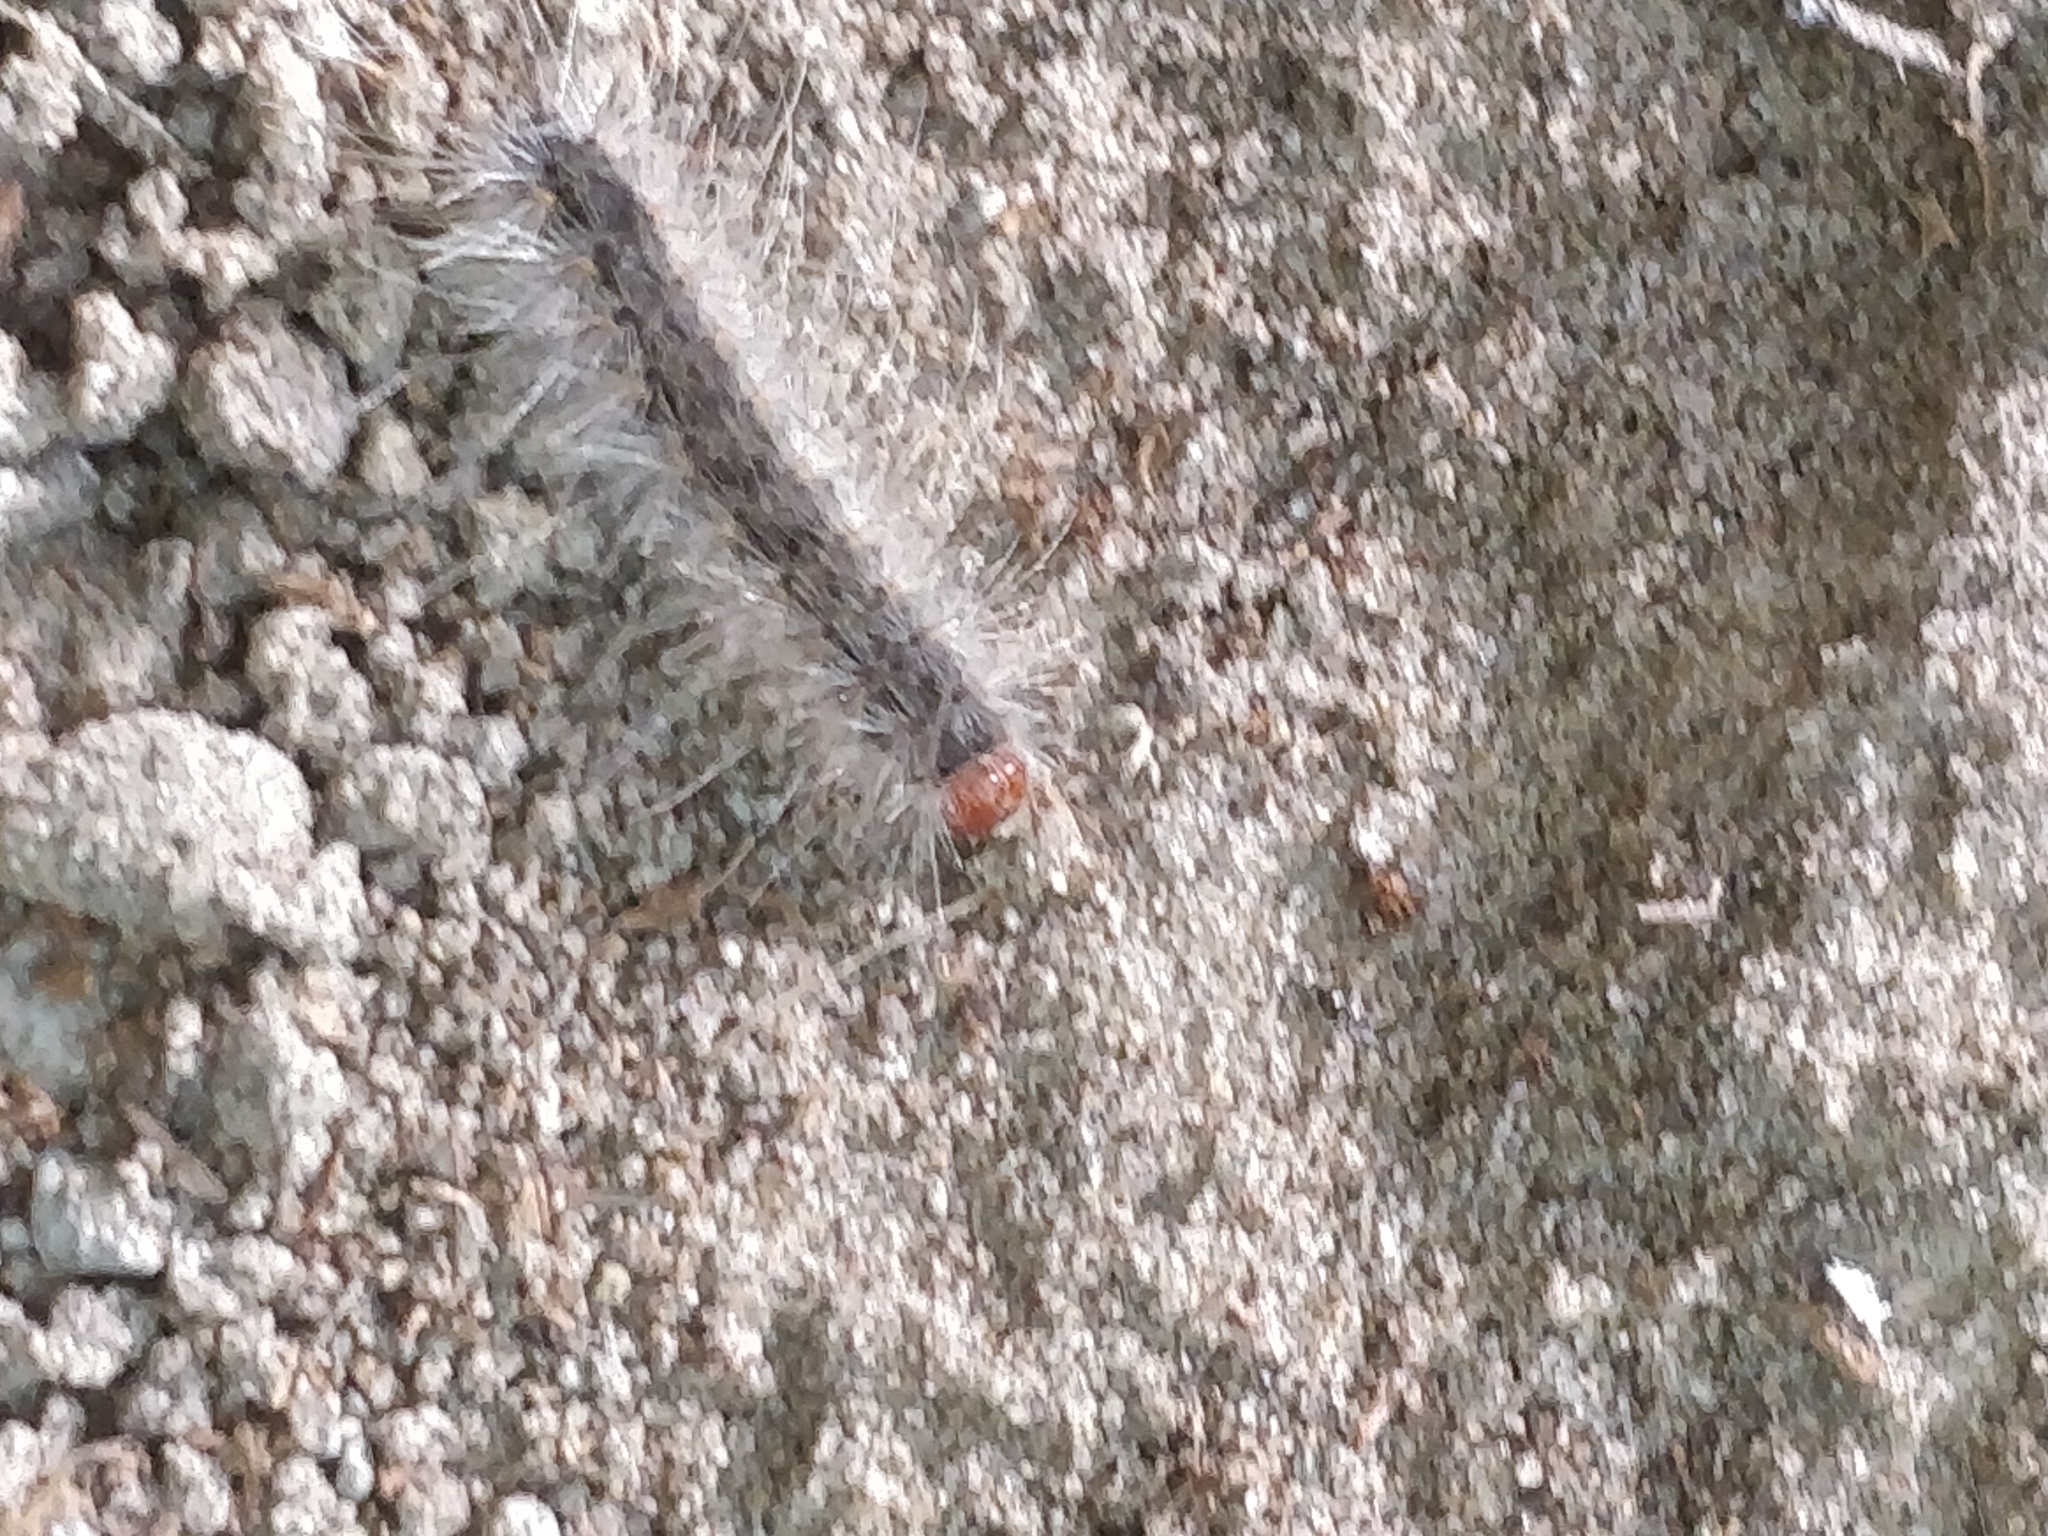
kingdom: Animalia
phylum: Arthropoda
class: Insecta
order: Lepidoptera
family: Erebidae
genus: Hyphantria
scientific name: Hyphantria cunea
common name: American white moth
